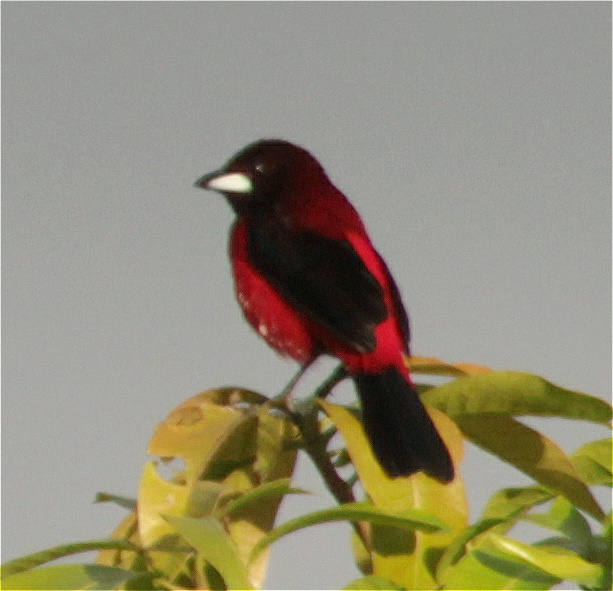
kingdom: Animalia
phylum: Chordata
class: Aves
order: Passeriformes
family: Thraupidae
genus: Ramphocelus
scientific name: Ramphocelus dimidiatus
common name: Crimson-backed tanager
